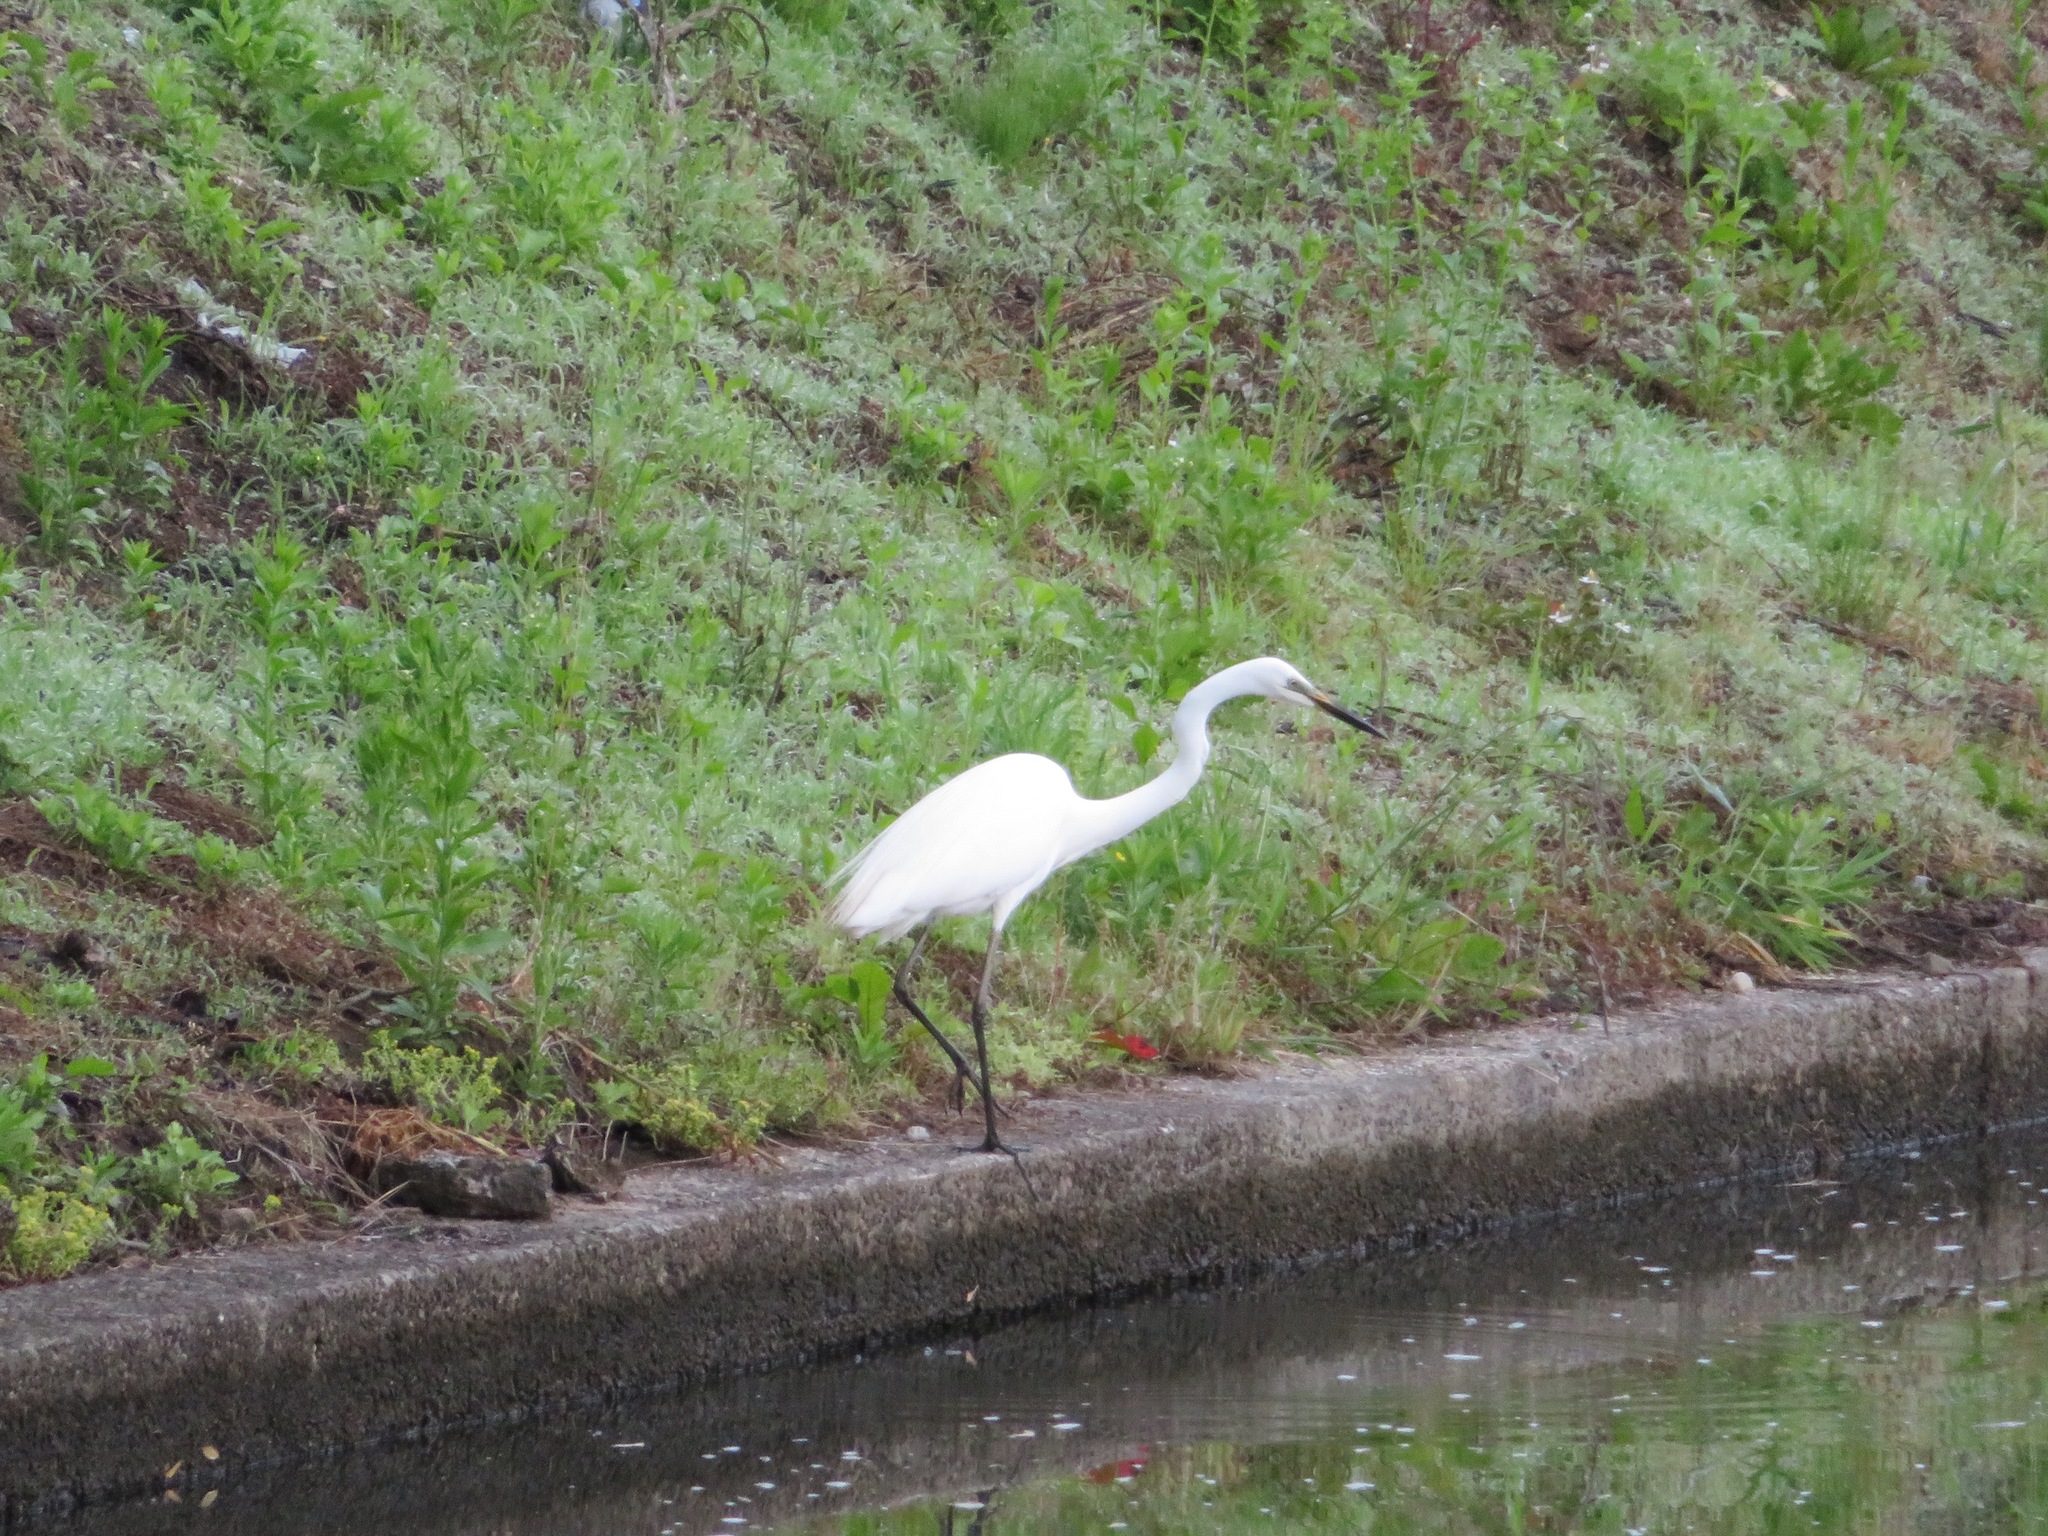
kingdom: Animalia
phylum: Chordata
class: Aves
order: Pelecaniformes
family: Ardeidae
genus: Ardea
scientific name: Ardea alba
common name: Great egret
